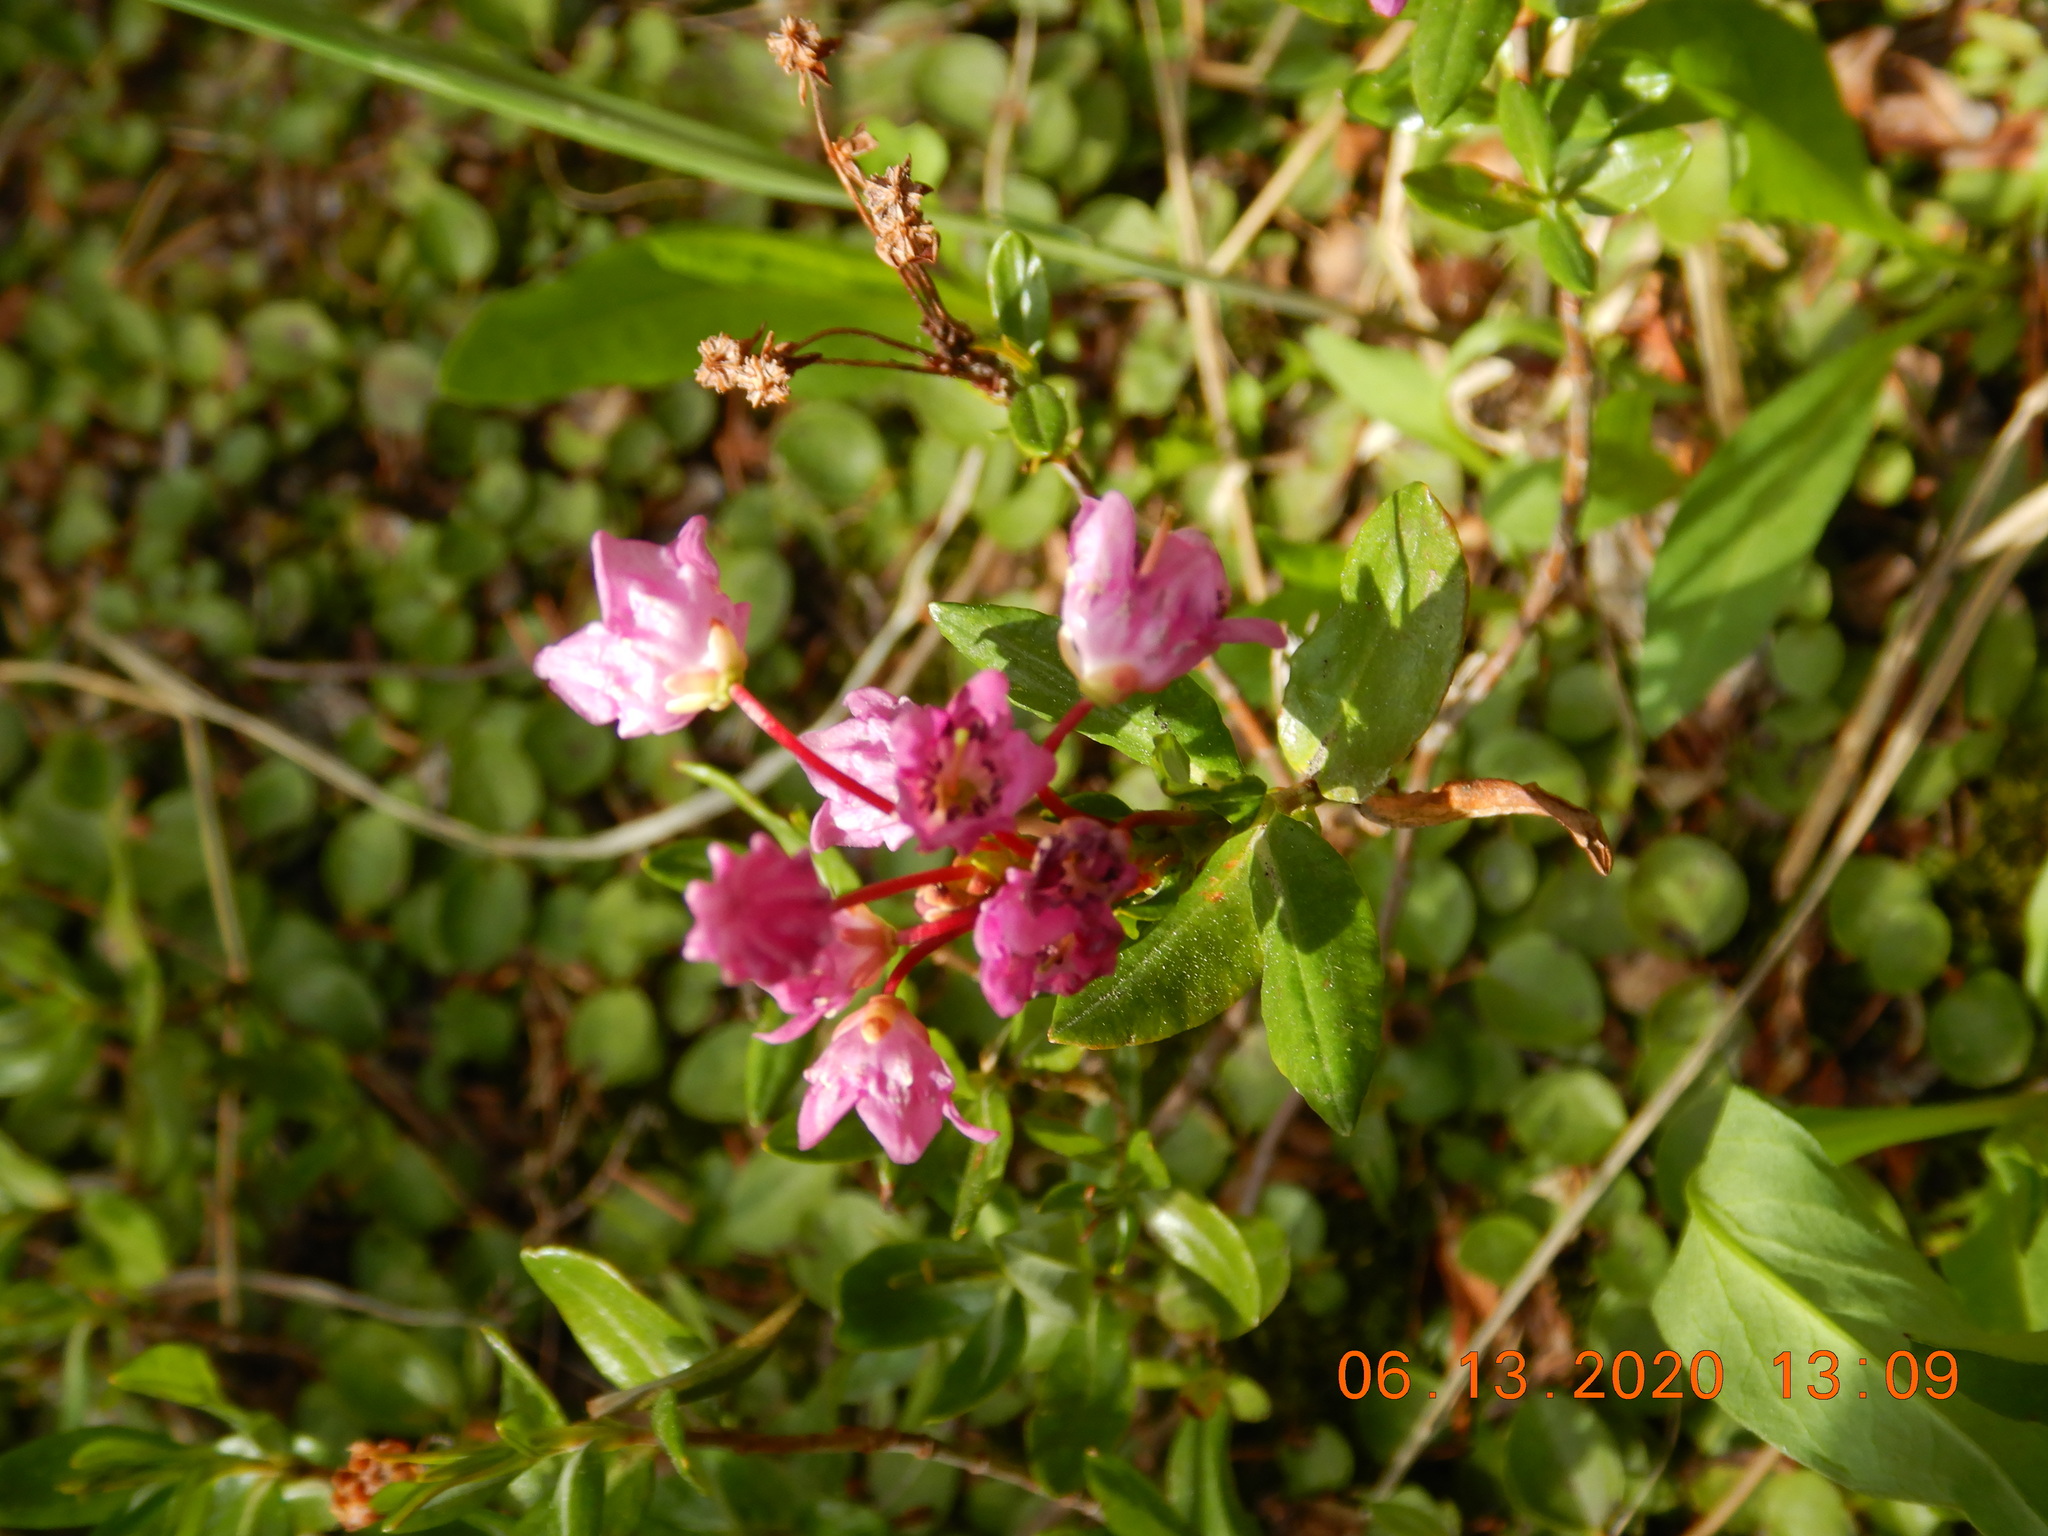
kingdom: Plantae
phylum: Tracheophyta
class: Magnoliopsida
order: Ericales
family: Ericaceae
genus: Kalmia
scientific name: Kalmia microphylla
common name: Alpine bog laurel
